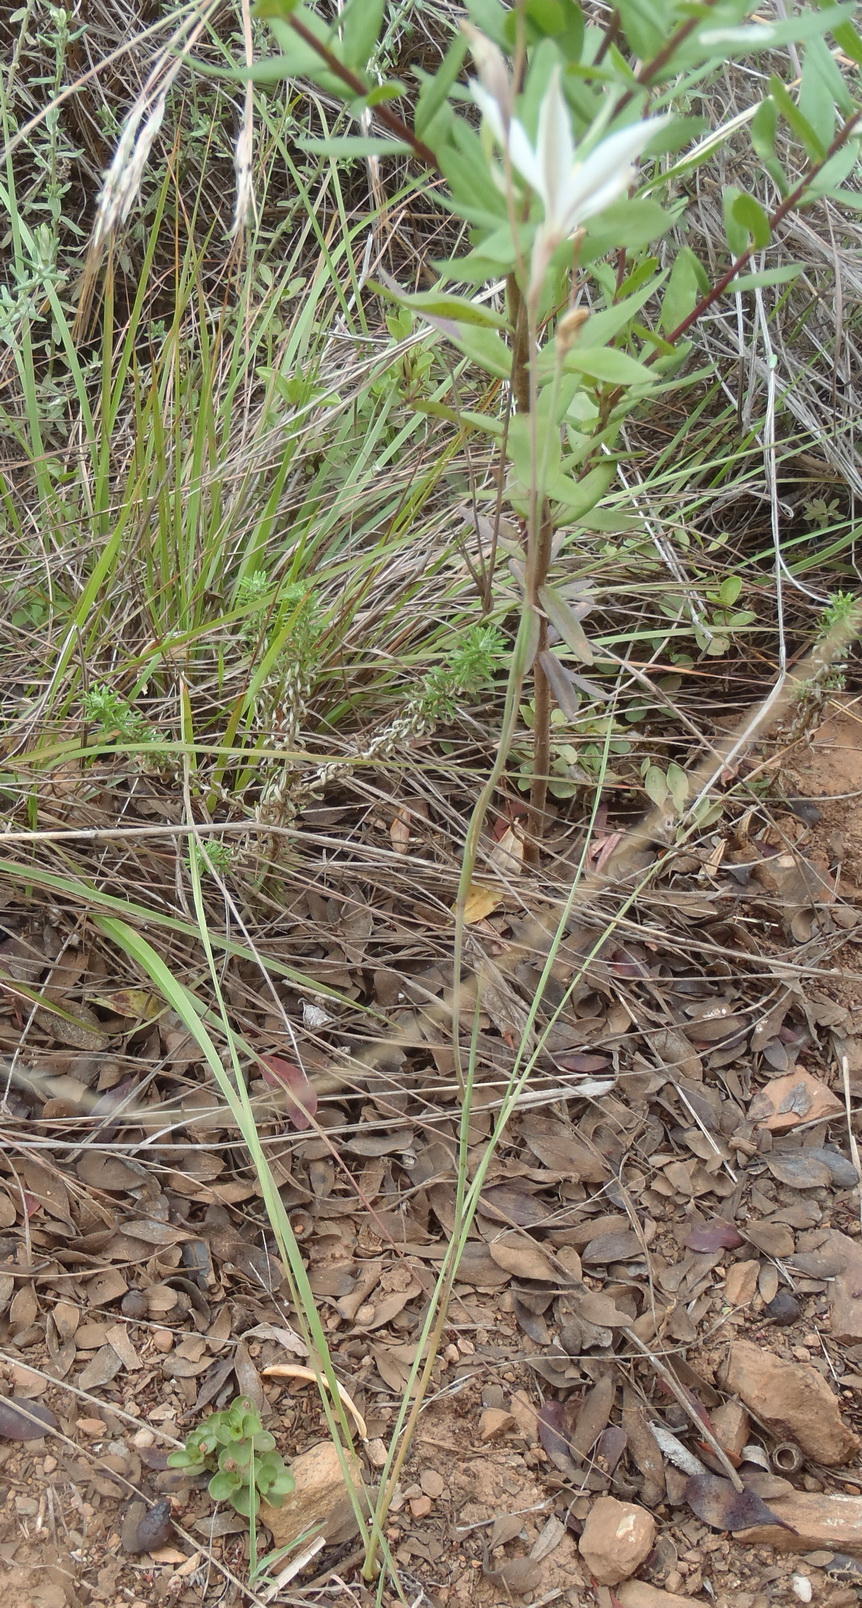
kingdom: Plantae
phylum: Tracheophyta
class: Liliopsida
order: Asparagales
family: Iridaceae
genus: Gladiolus
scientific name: Gladiolus stellatus
